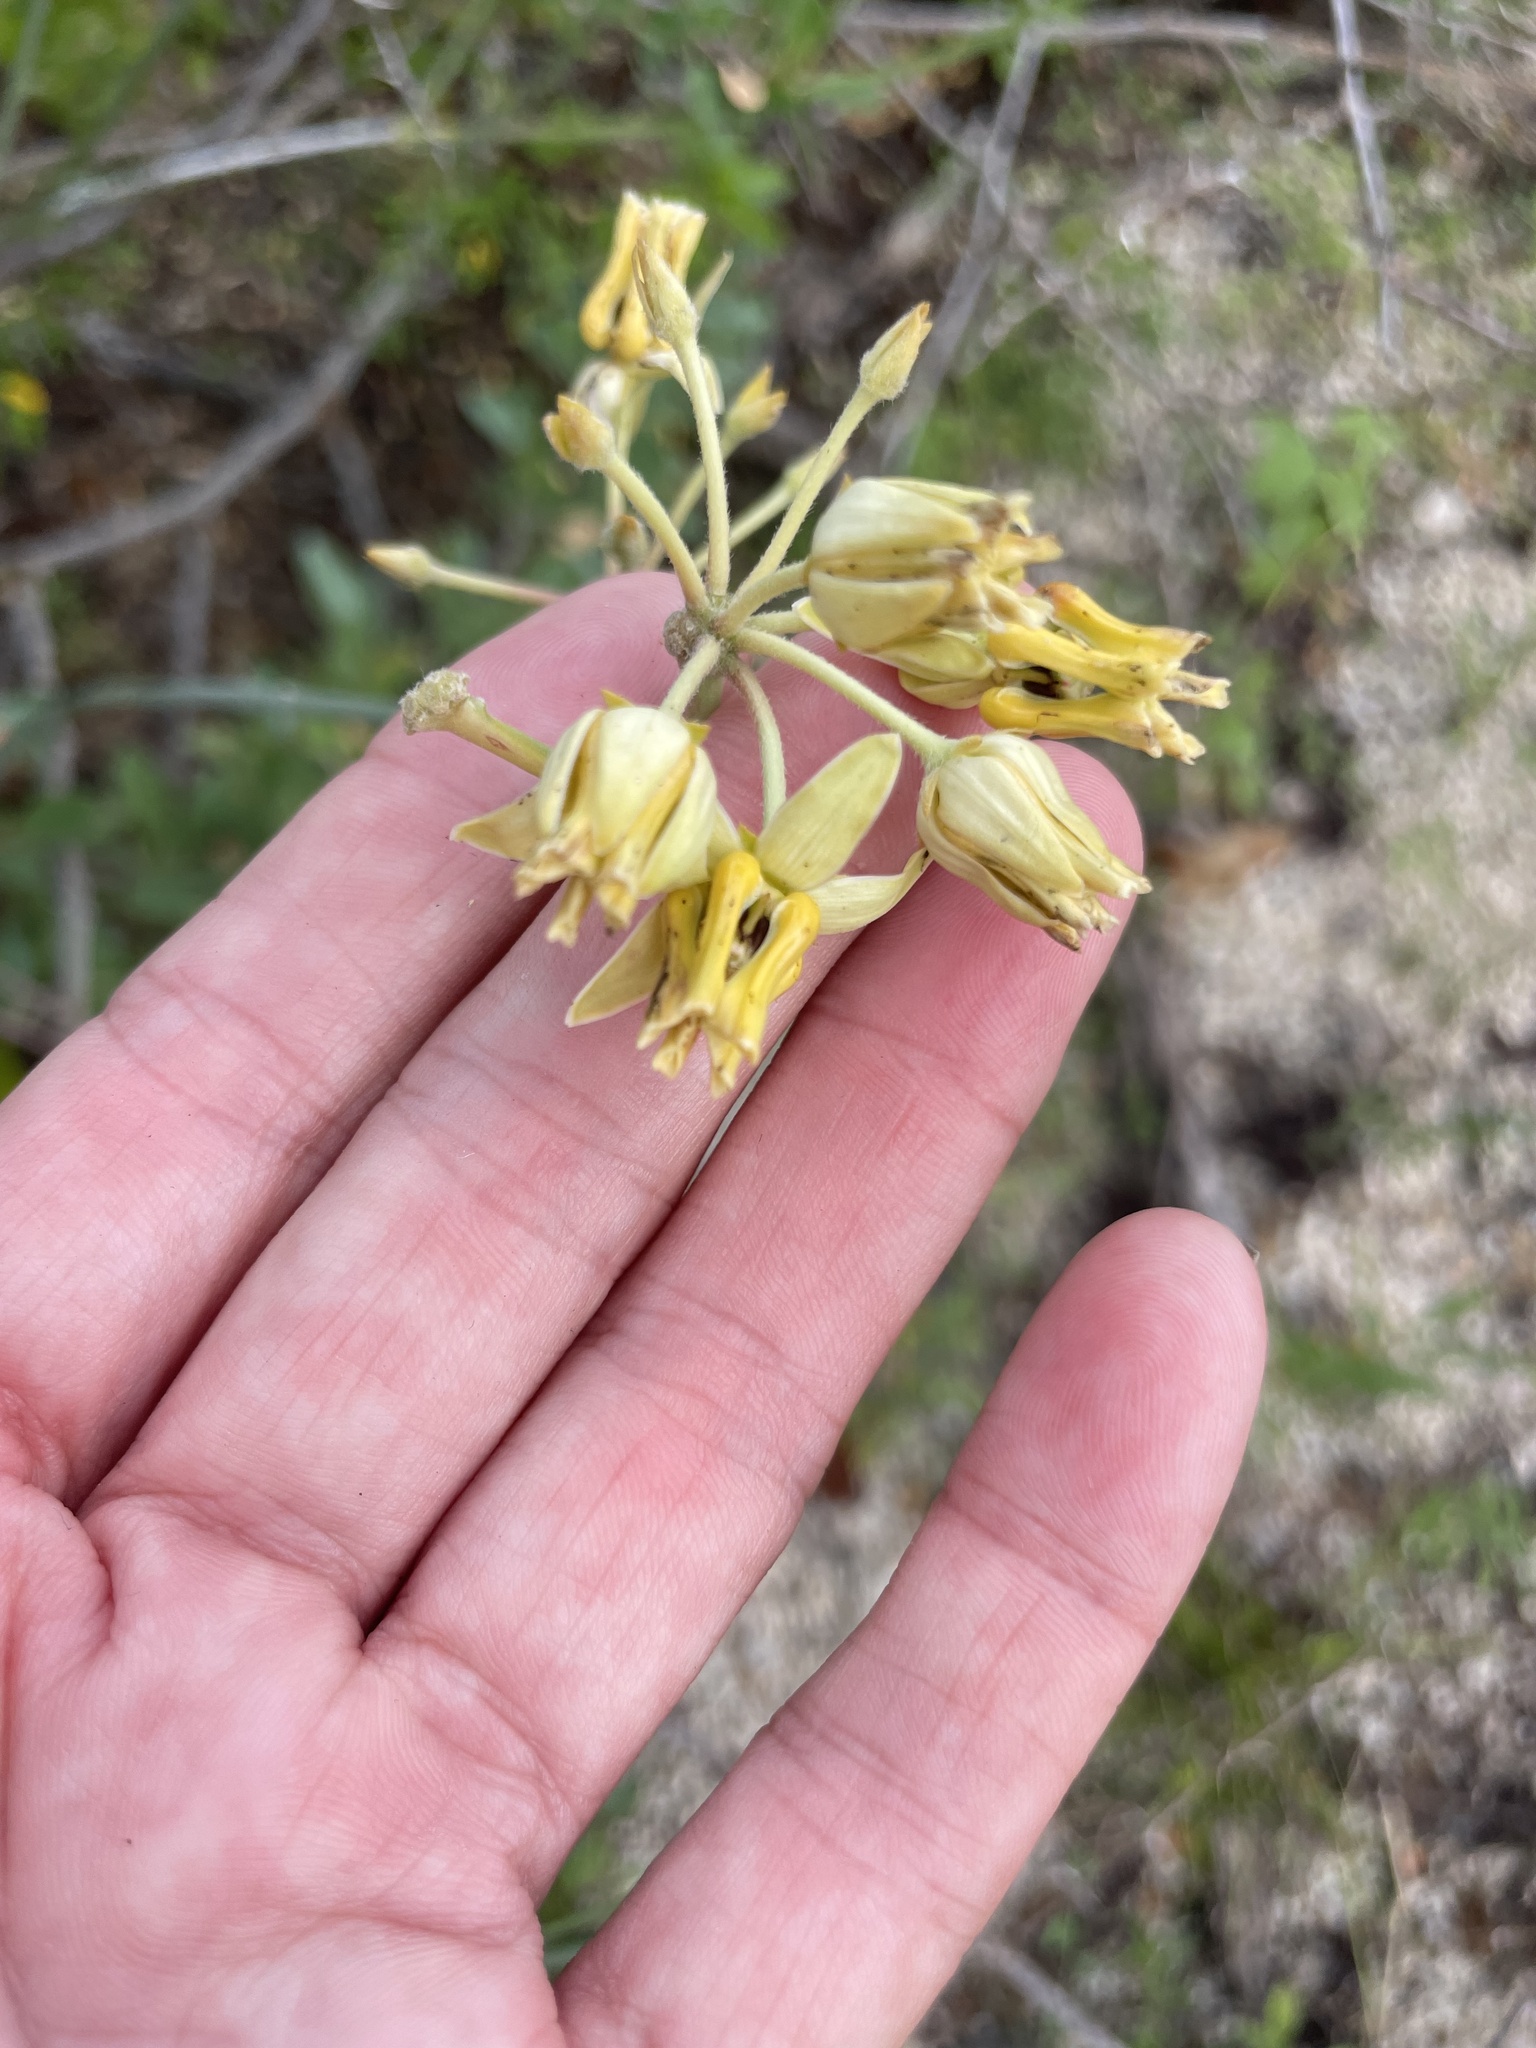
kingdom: Plantae
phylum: Tracheophyta
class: Magnoliopsida
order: Gentianales
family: Apocynaceae
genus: Asclepias
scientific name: Asclepias subulata
